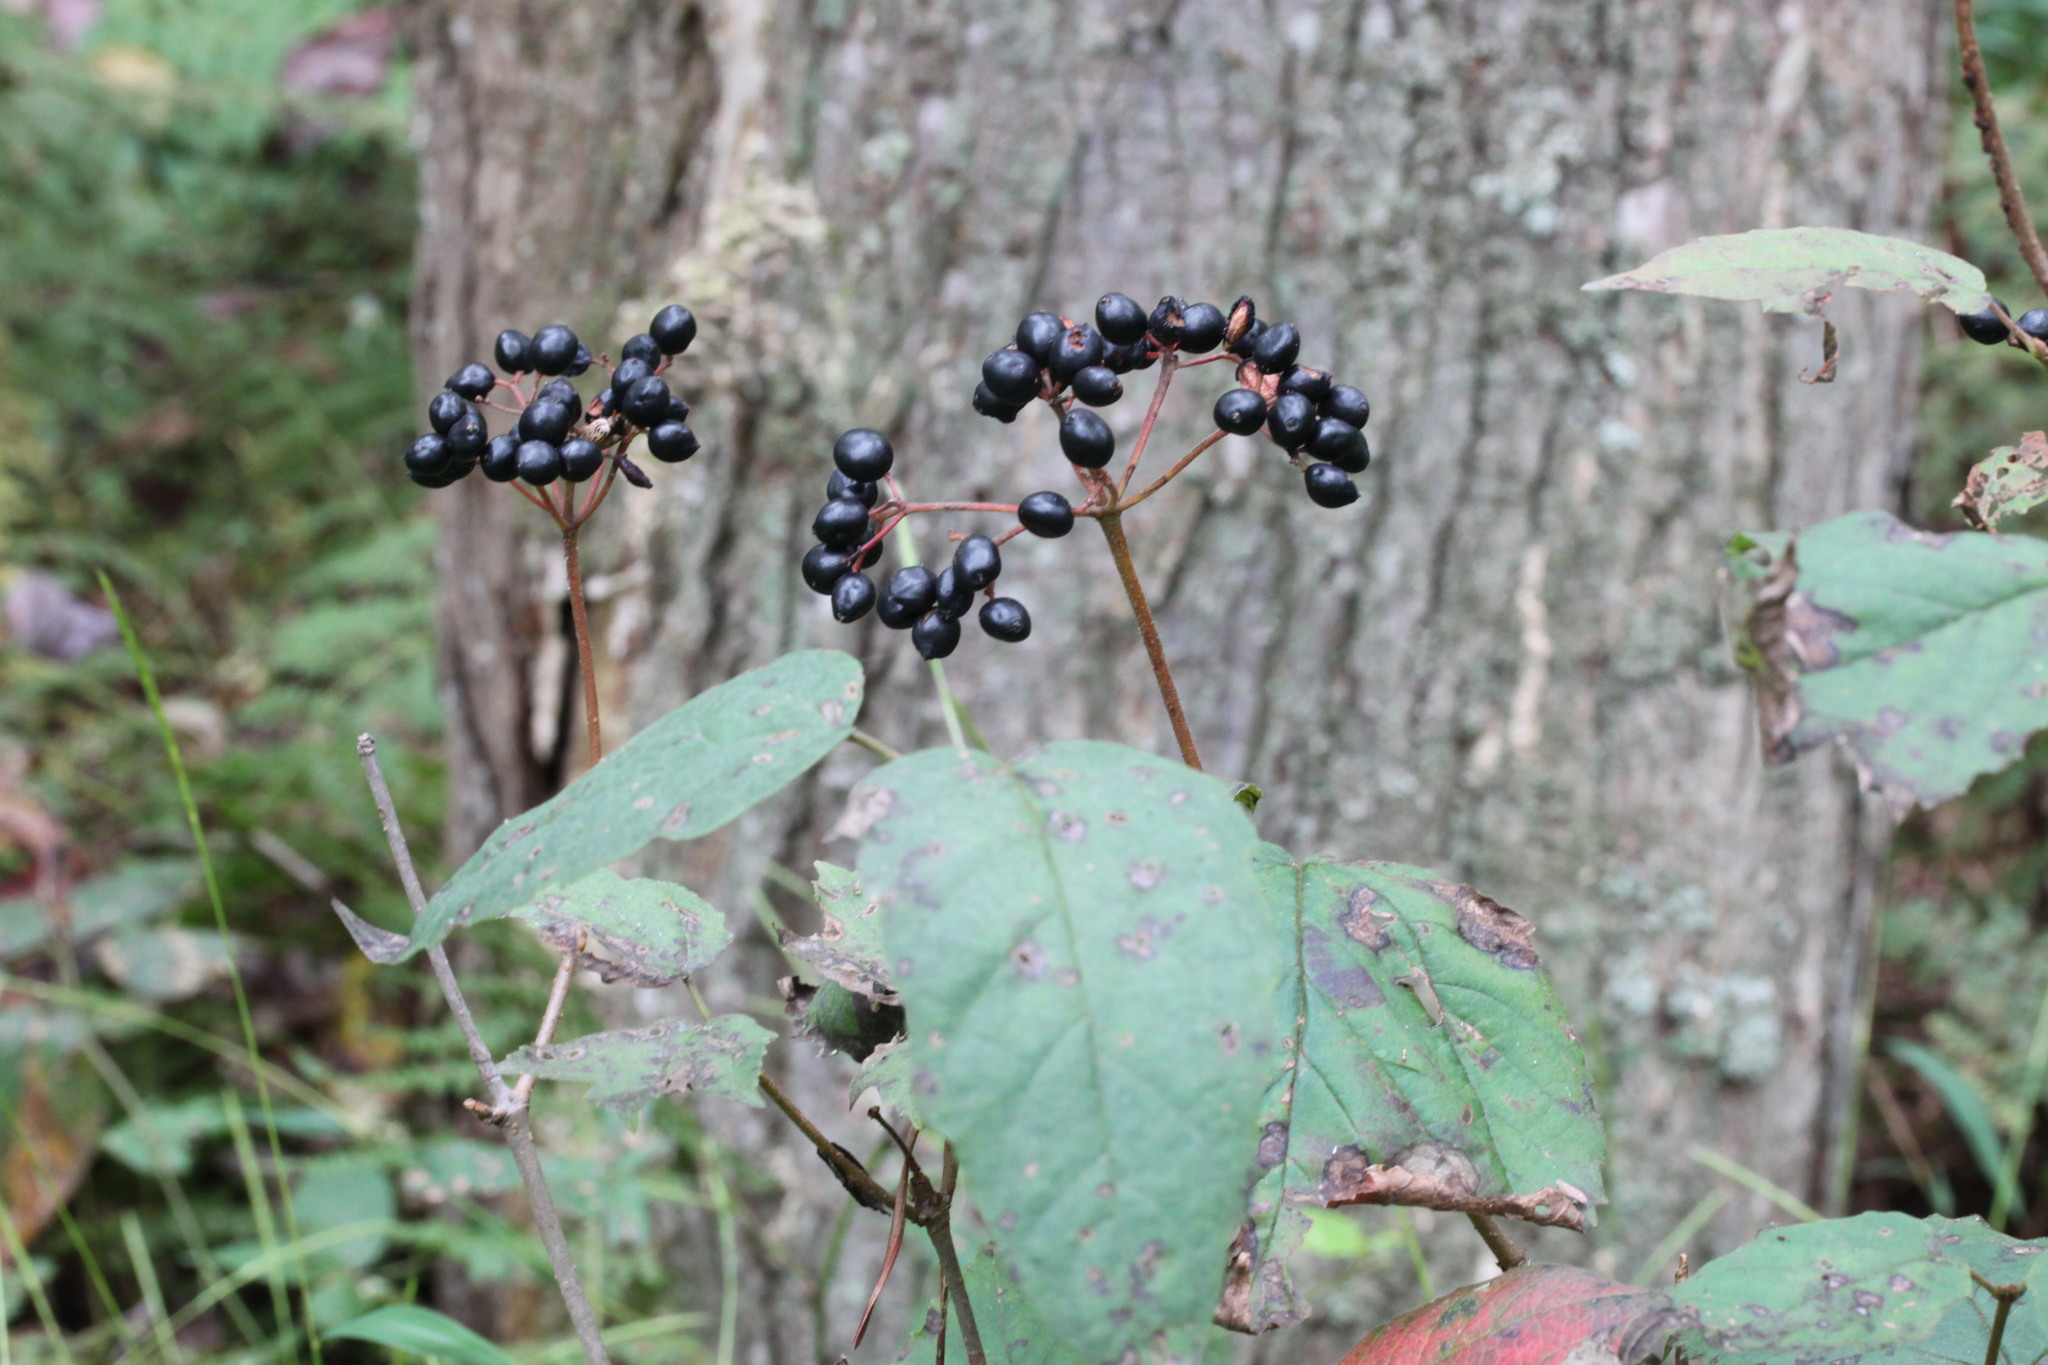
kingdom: Plantae
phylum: Tracheophyta
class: Magnoliopsida
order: Dipsacales
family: Viburnaceae
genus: Viburnum
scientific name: Viburnum acerifolium
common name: Dockmackie
